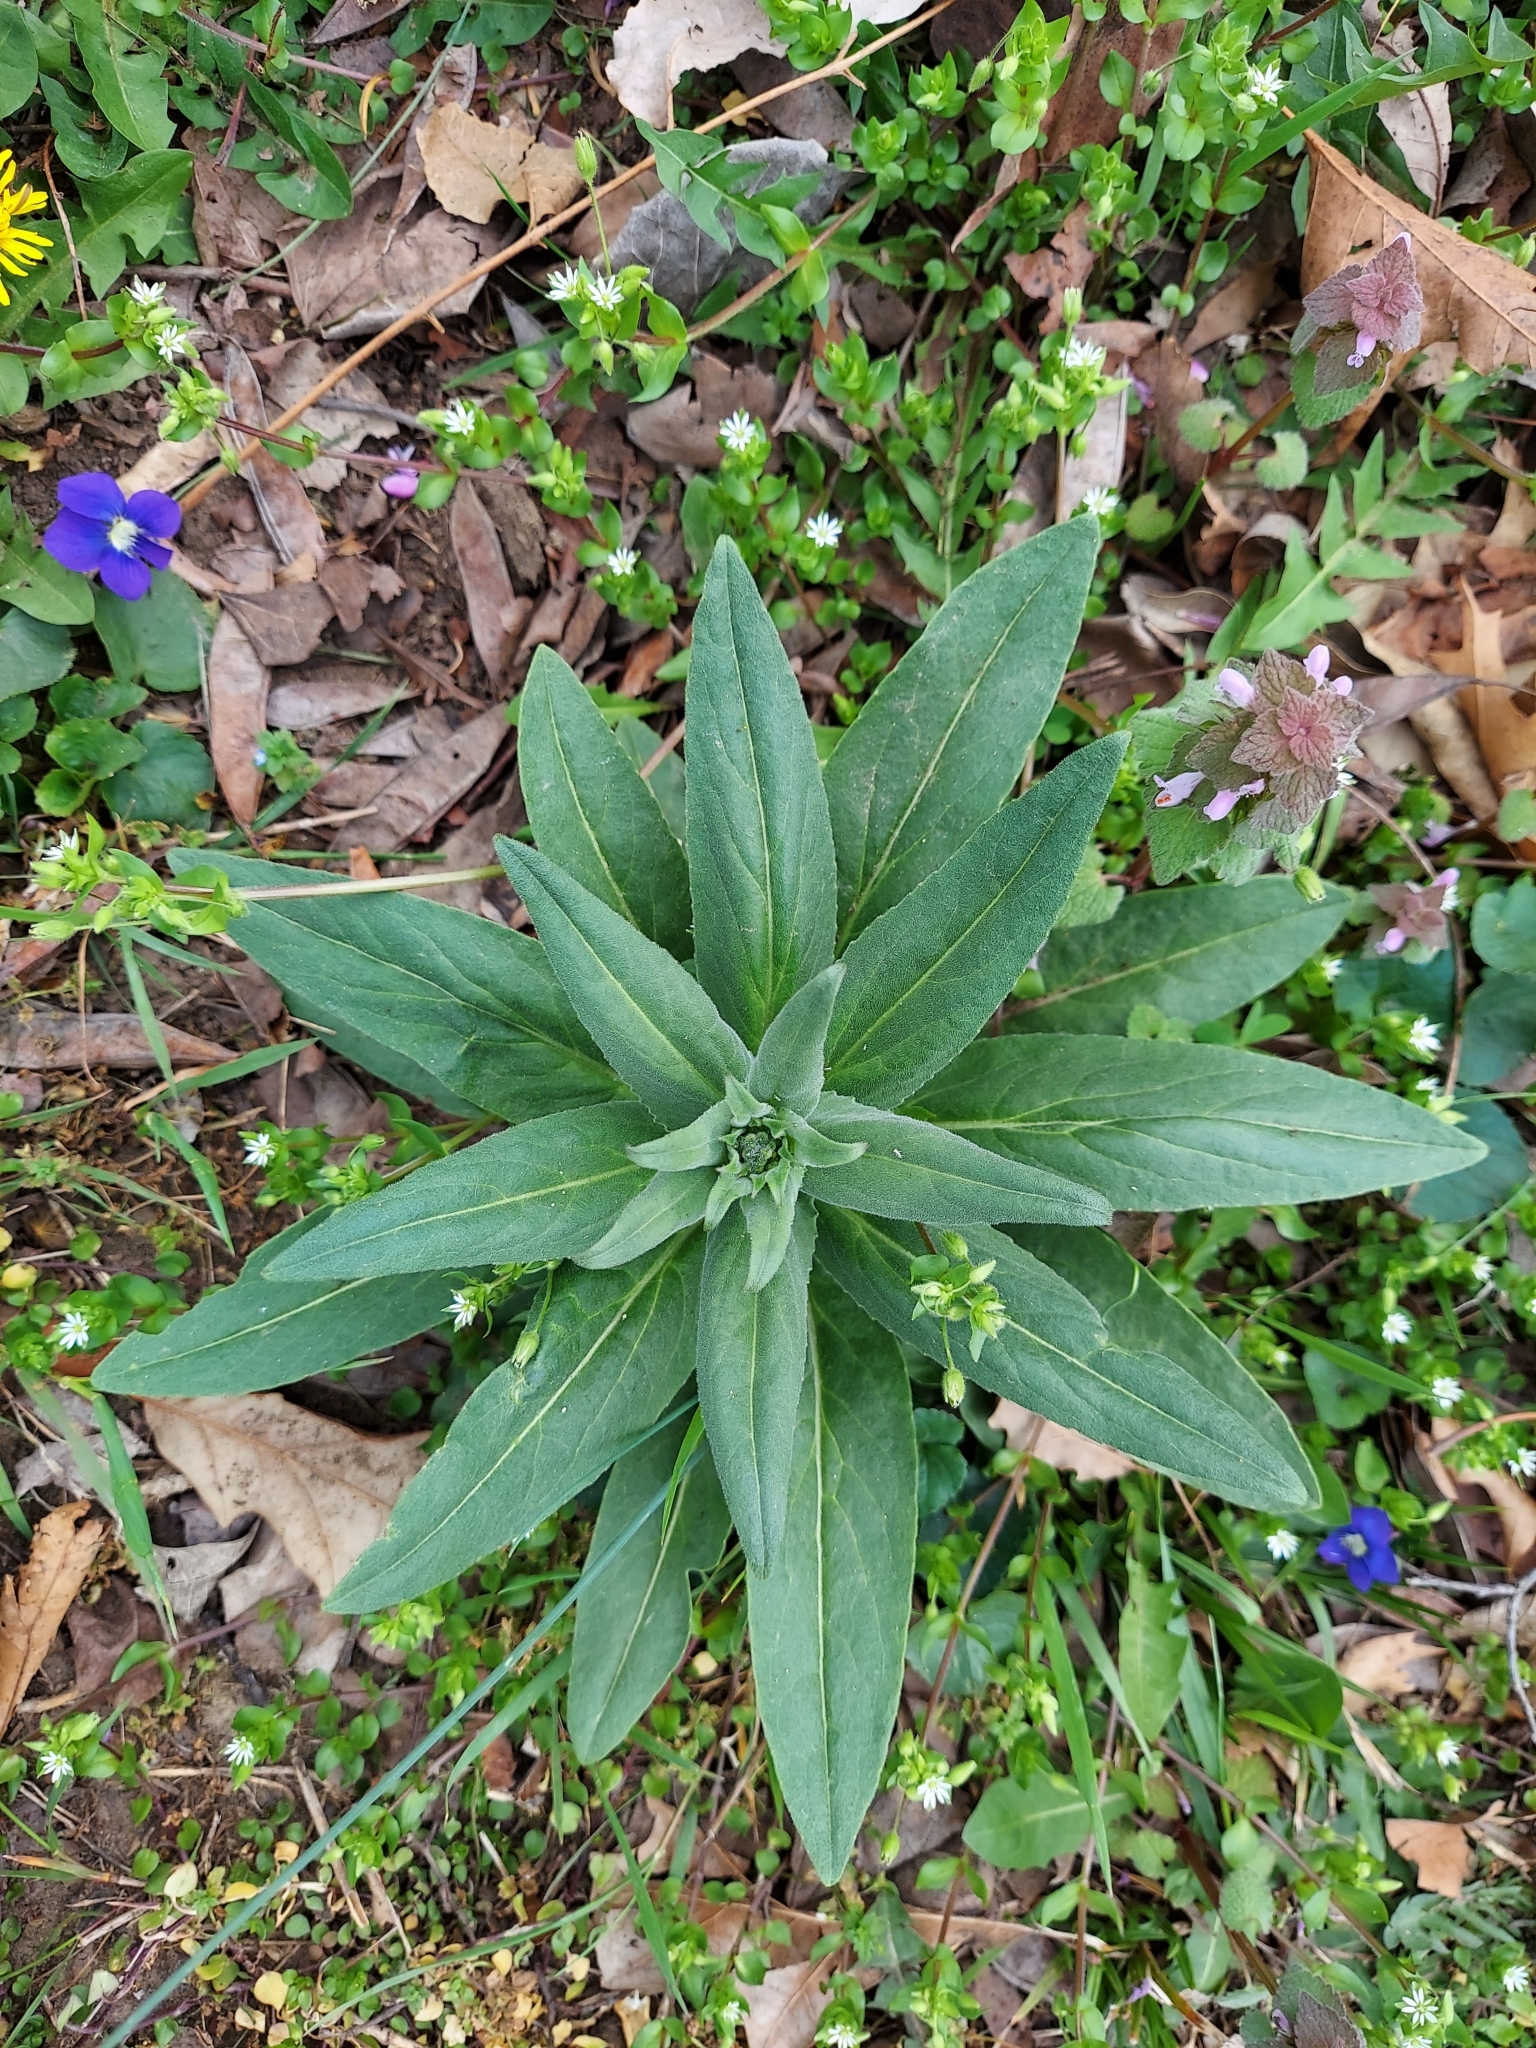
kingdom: Plantae
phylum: Tracheophyta
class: Magnoliopsida
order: Brassicales
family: Brassicaceae
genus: Hesperis
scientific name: Hesperis matronalis
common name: Dame's-violet
